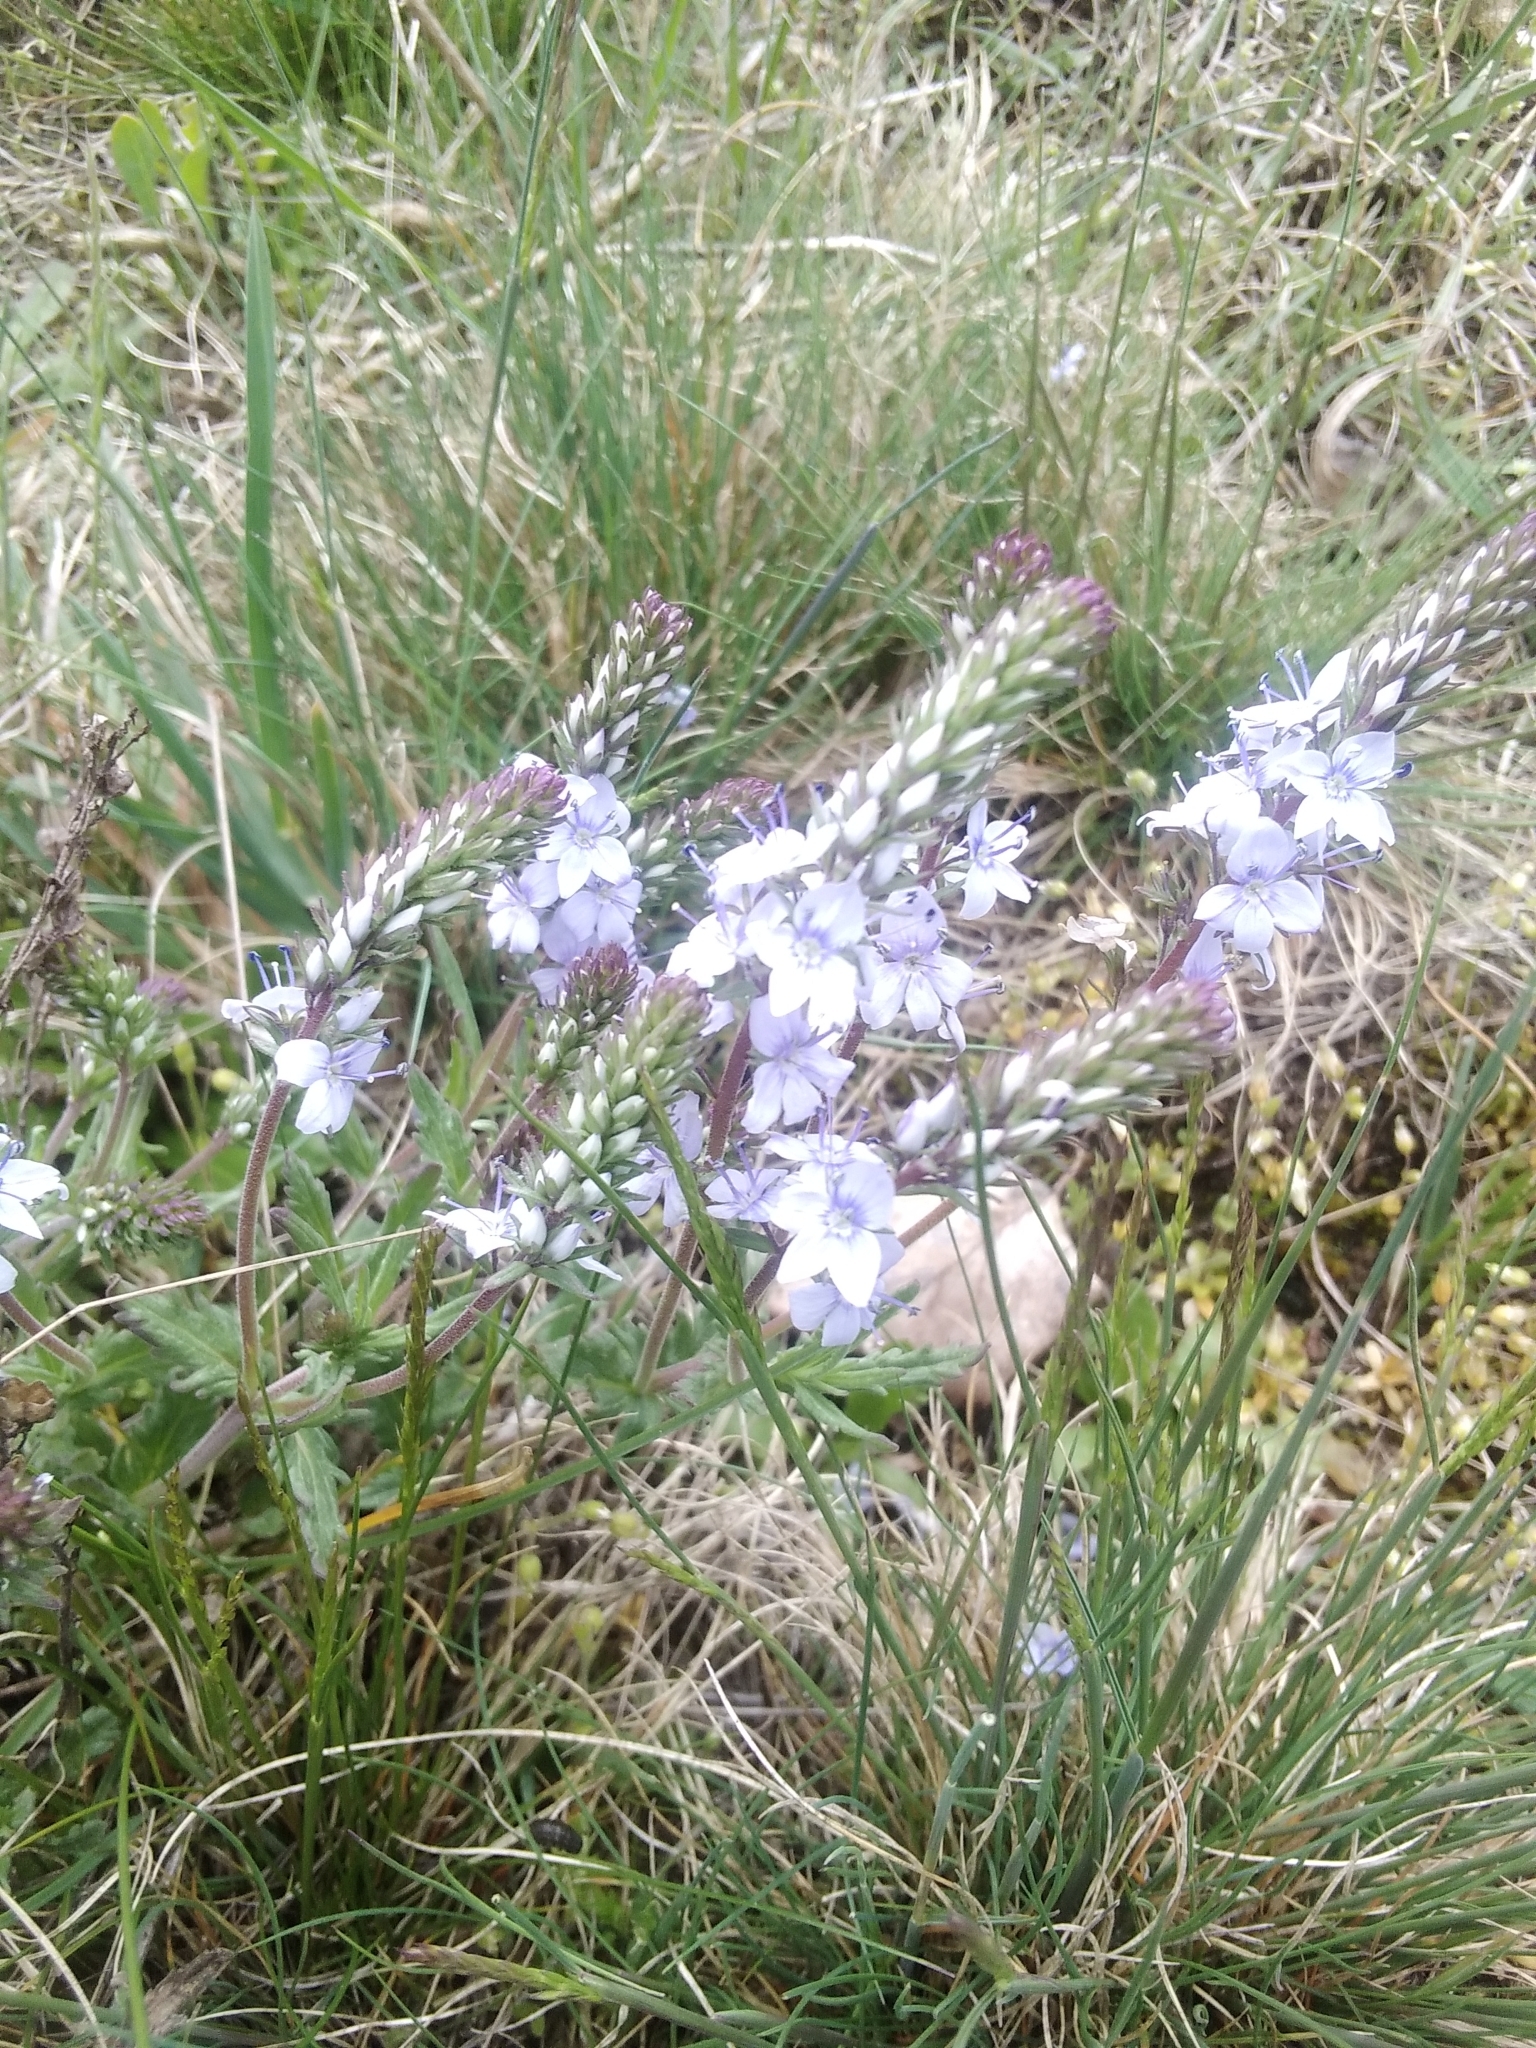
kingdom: Plantae
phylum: Tracheophyta
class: Magnoliopsida
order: Lamiales
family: Plantaginaceae
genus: Veronica
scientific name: Veronica prostrata
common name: Prostrate speedwell
